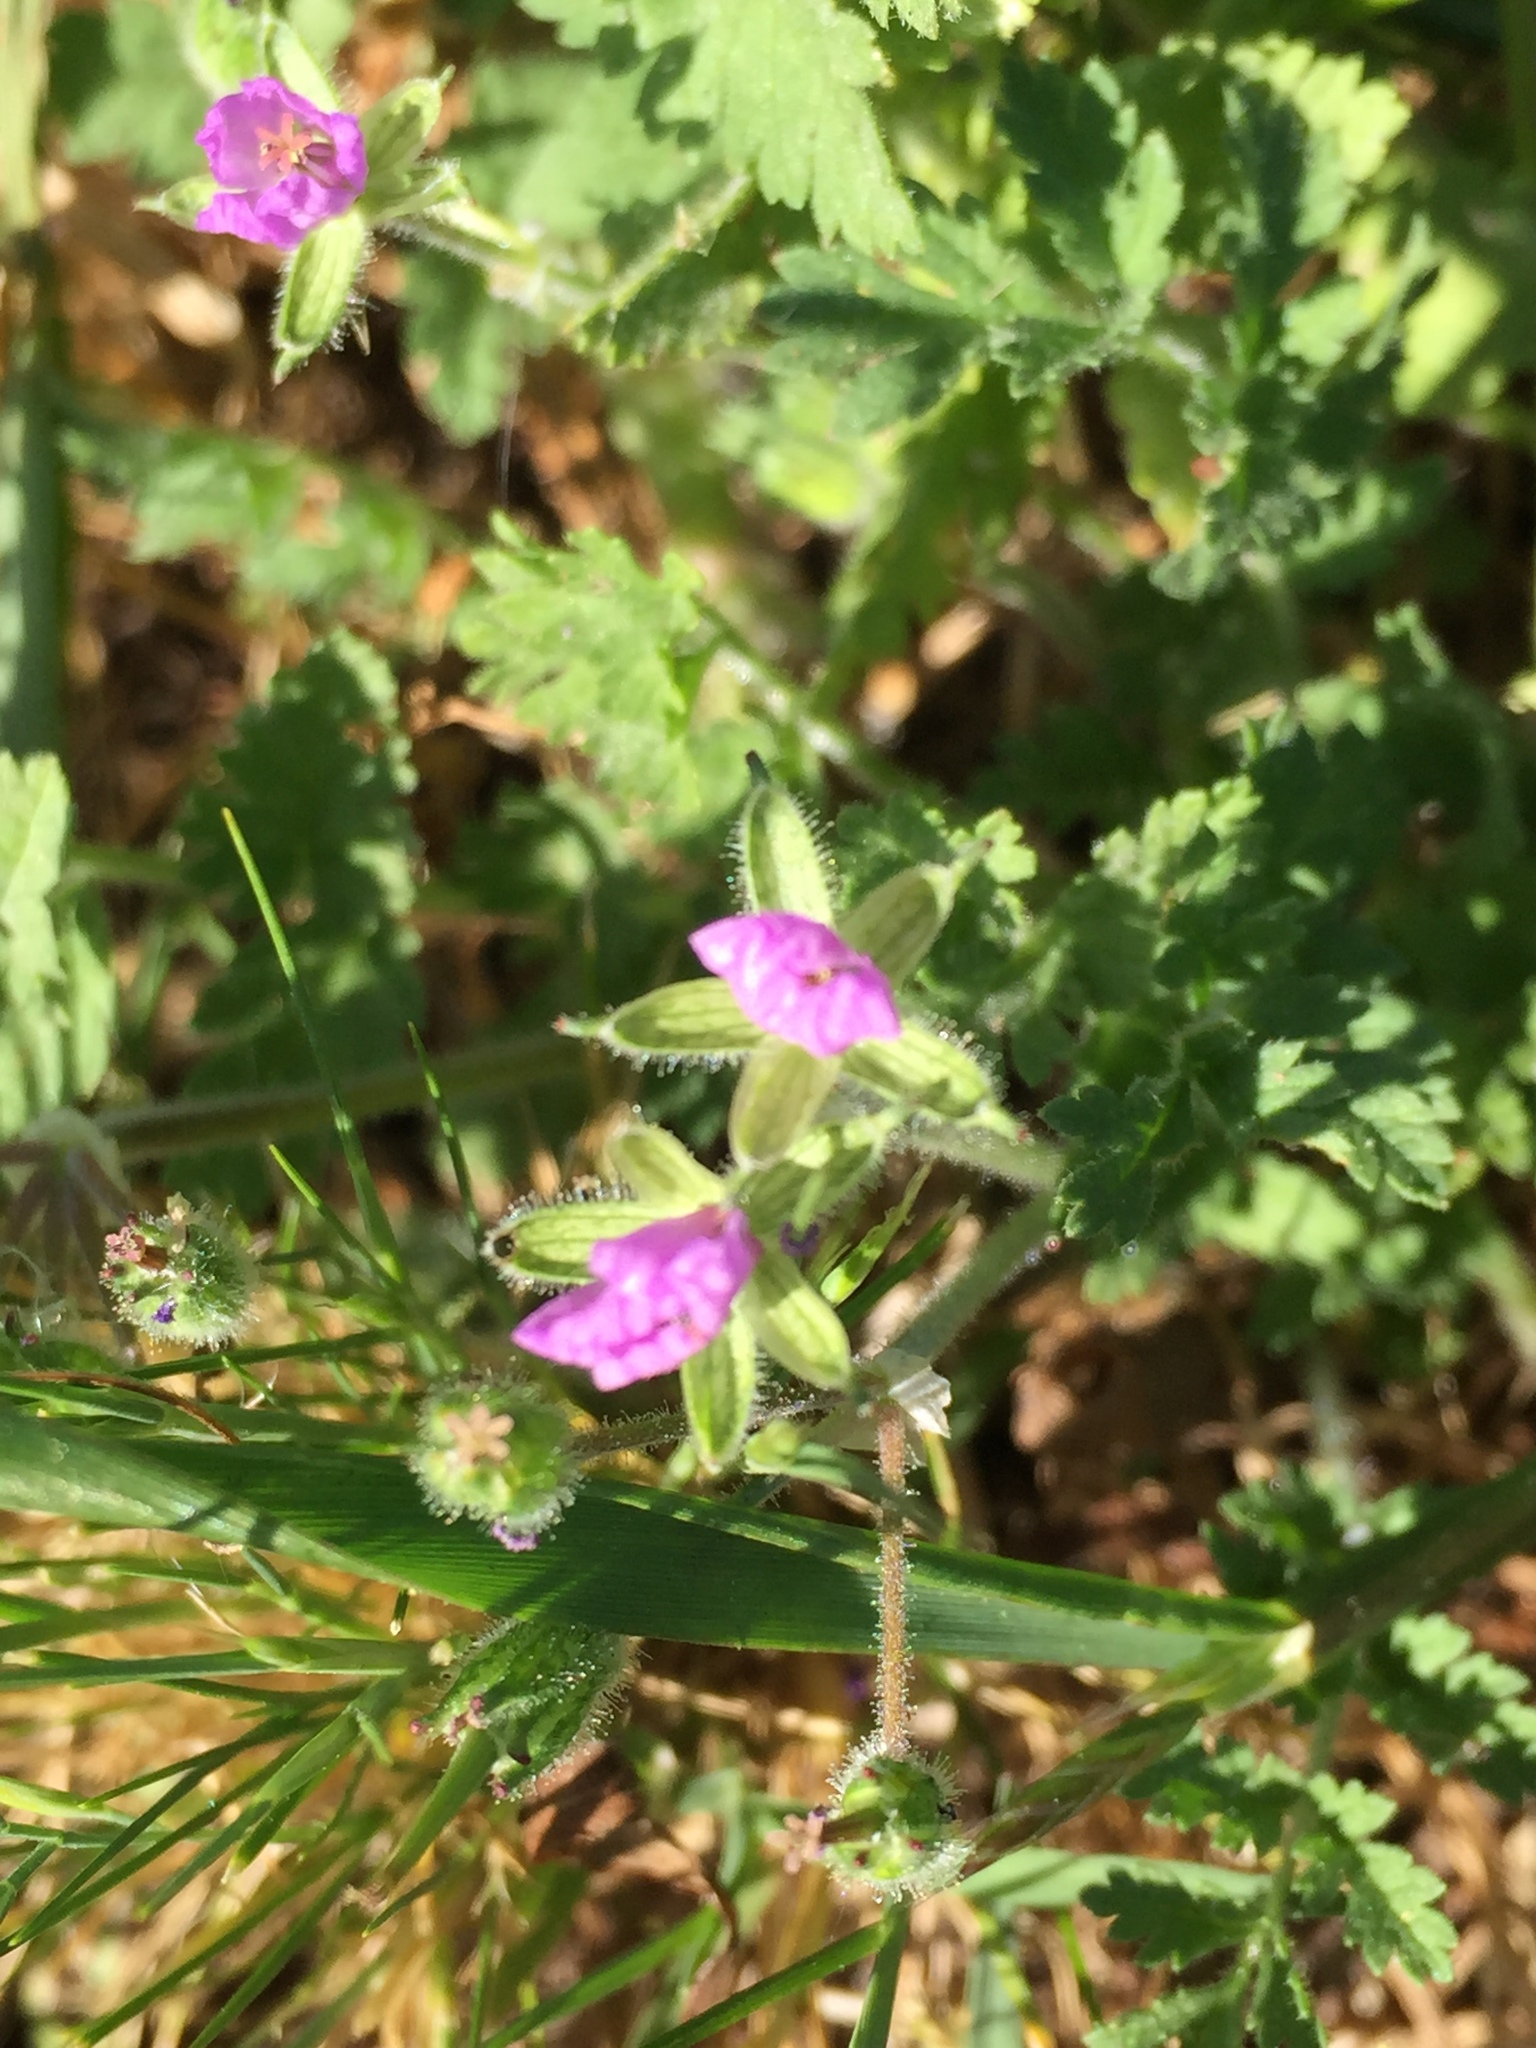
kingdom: Plantae
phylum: Tracheophyta
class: Magnoliopsida
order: Geraniales
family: Geraniaceae
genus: Erodium
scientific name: Erodium moschatum
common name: Musk stork's-bill
